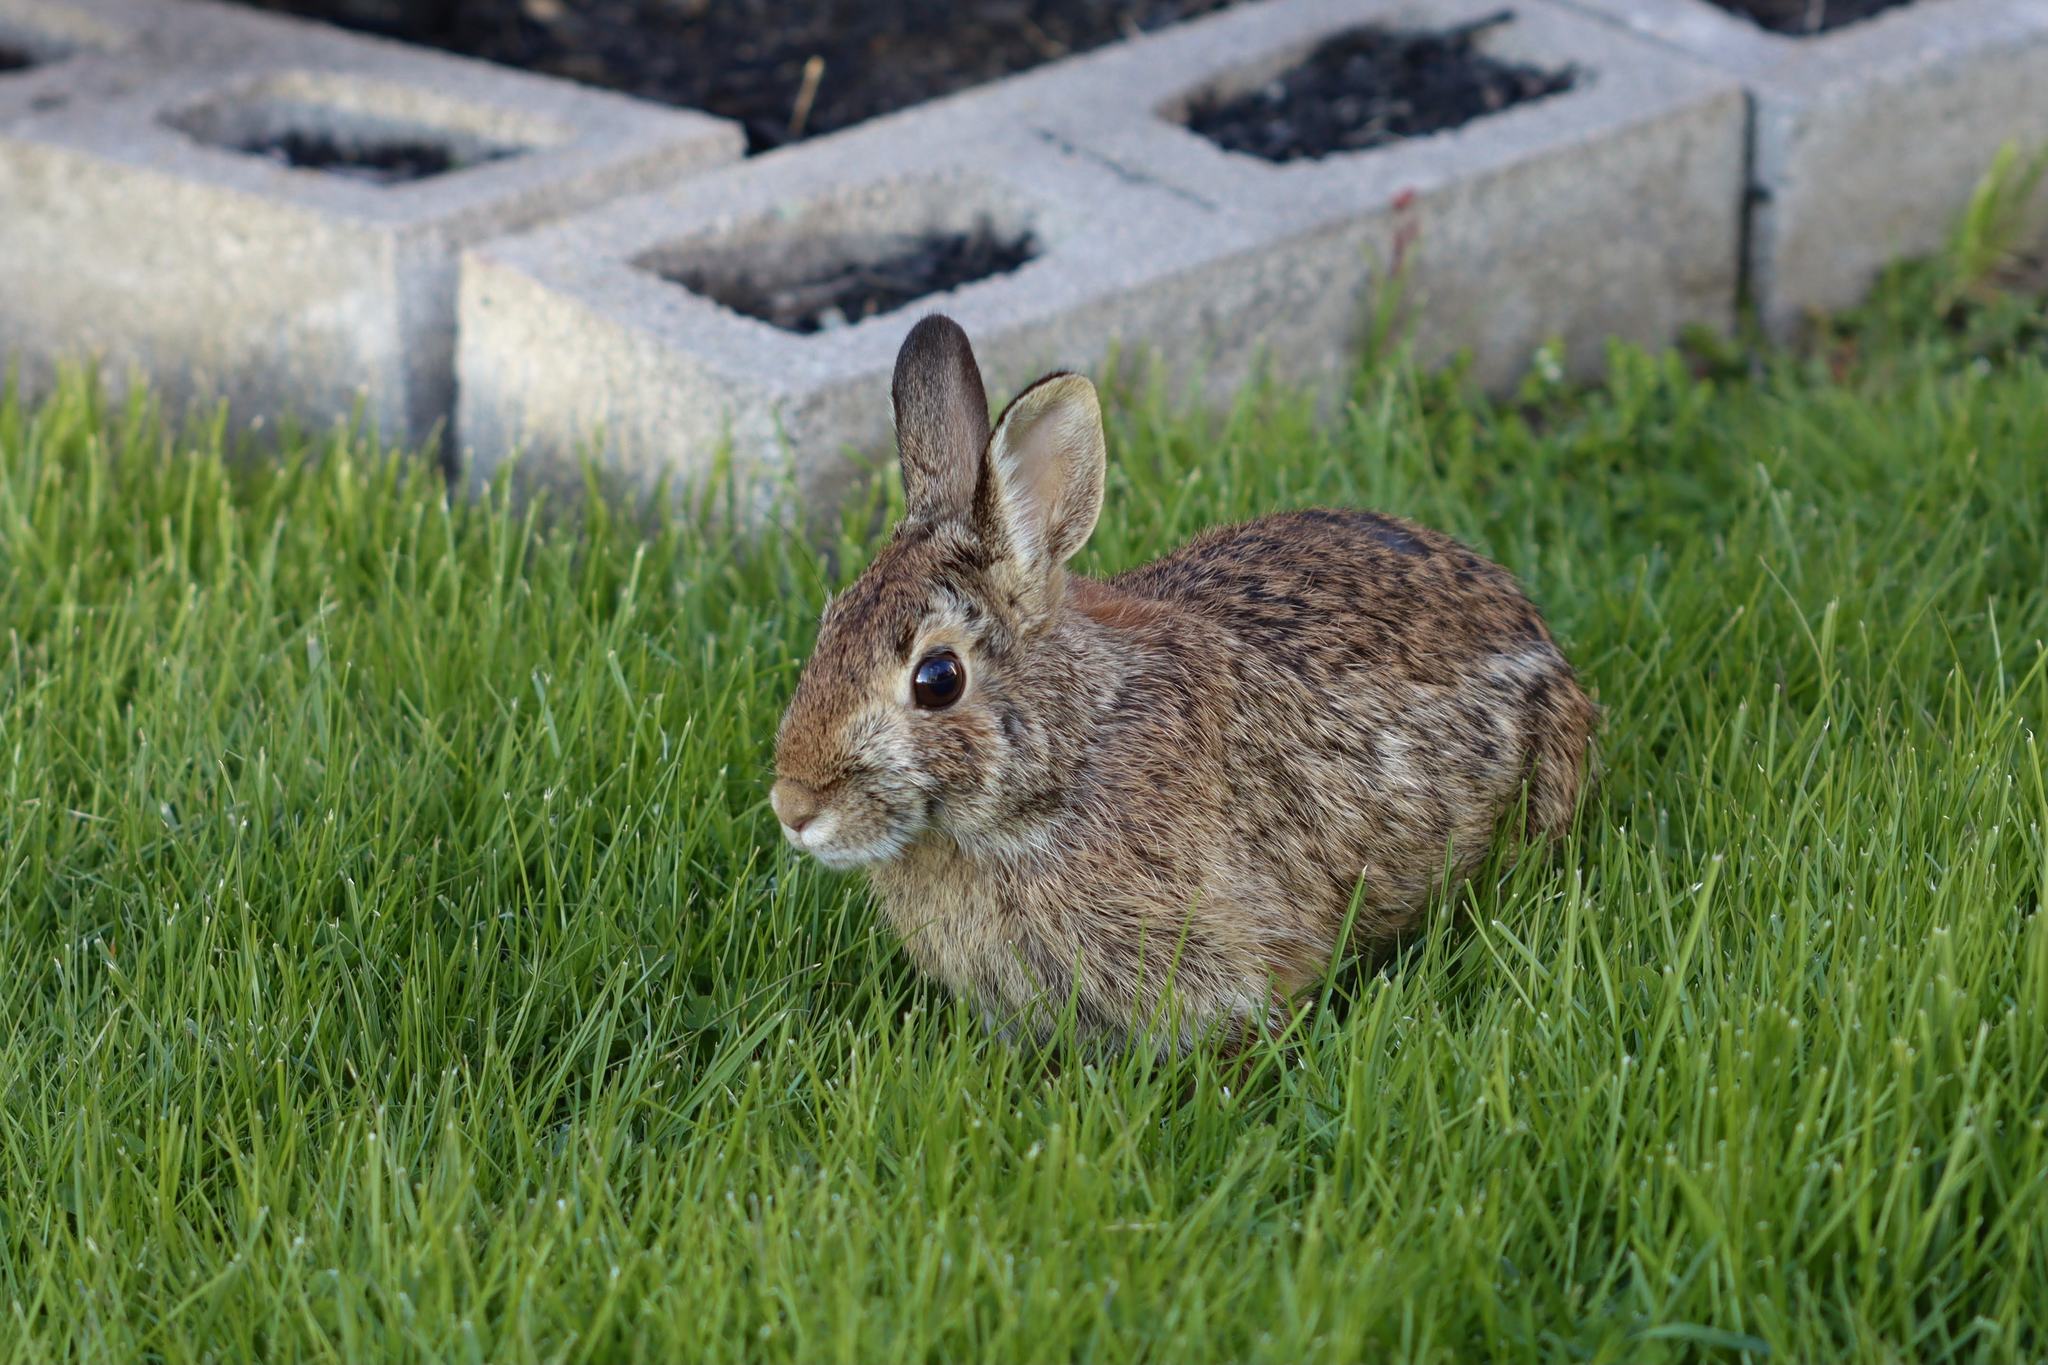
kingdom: Animalia
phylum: Chordata
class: Mammalia
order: Lagomorpha
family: Leporidae
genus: Sylvilagus
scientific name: Sylvilagus floridanus
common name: Eastern cottontail
